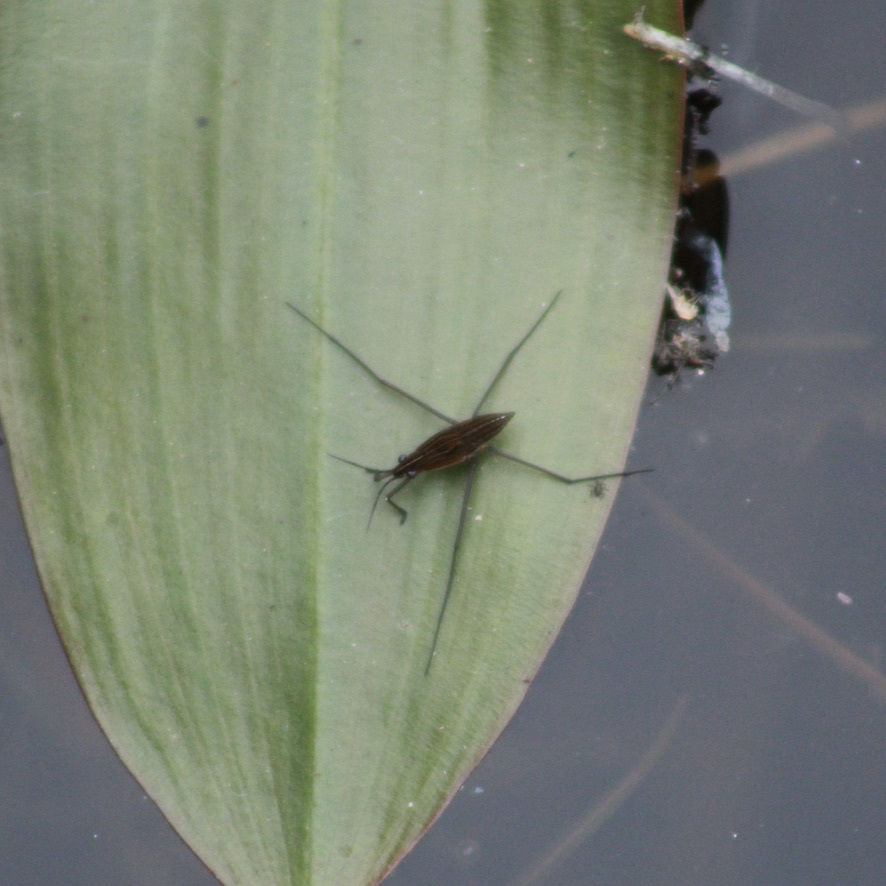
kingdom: Animalia
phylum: Arthropoda
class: Insecta
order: Hemiptera
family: Gerridae
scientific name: Gerridae
